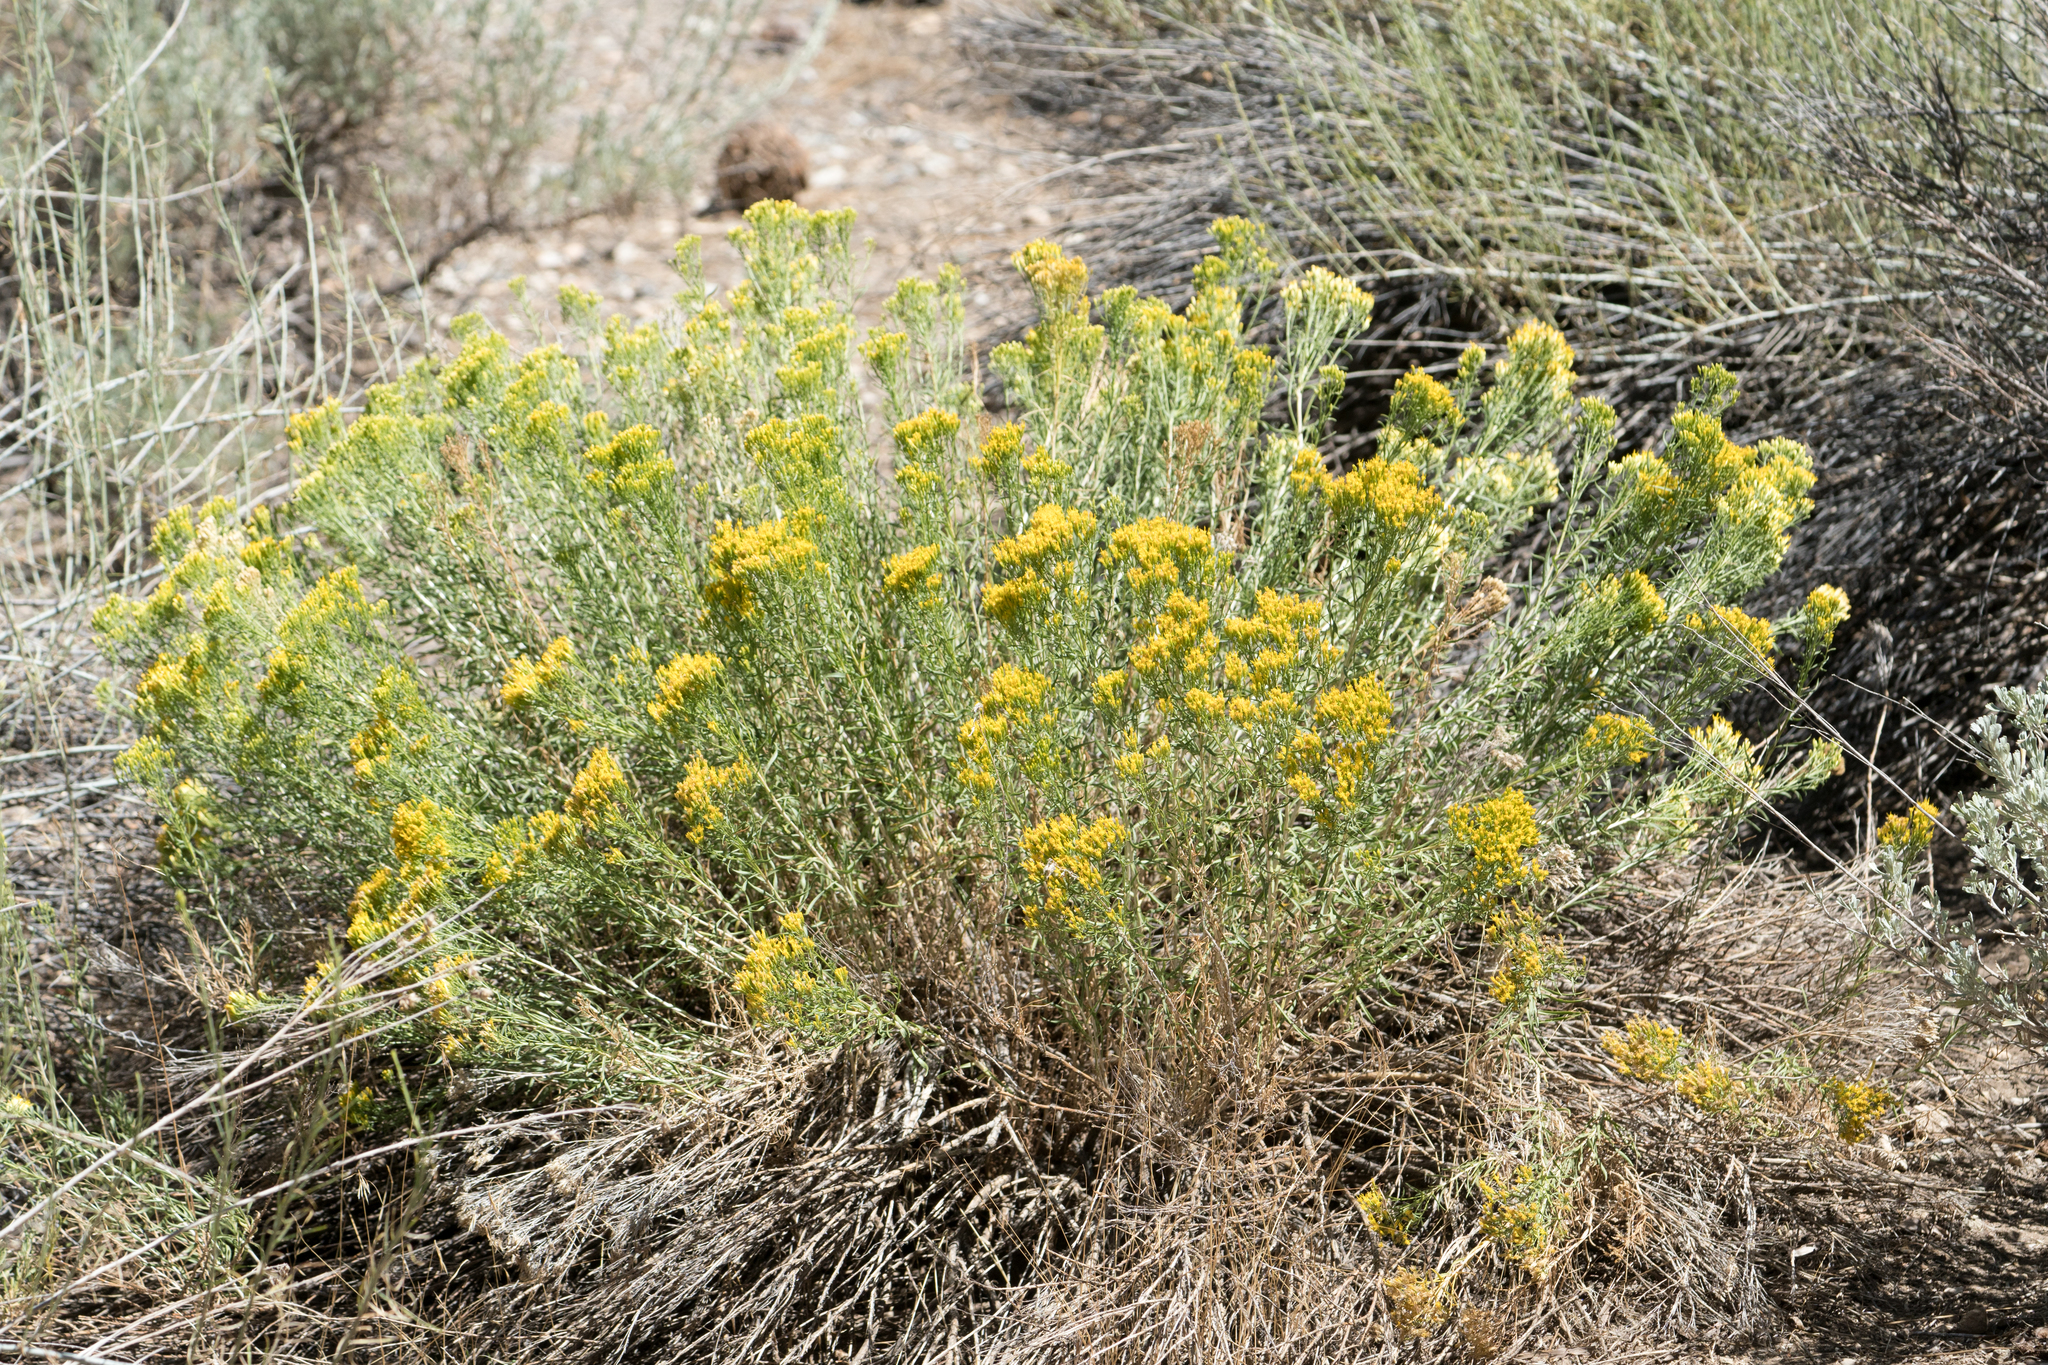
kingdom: Plantae
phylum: Tracheophyta
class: Magnoliopsida
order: Asterales
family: Asteraceae
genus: Ericameria
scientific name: Ericameria nauseosa
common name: Rubber rabbitbrush
